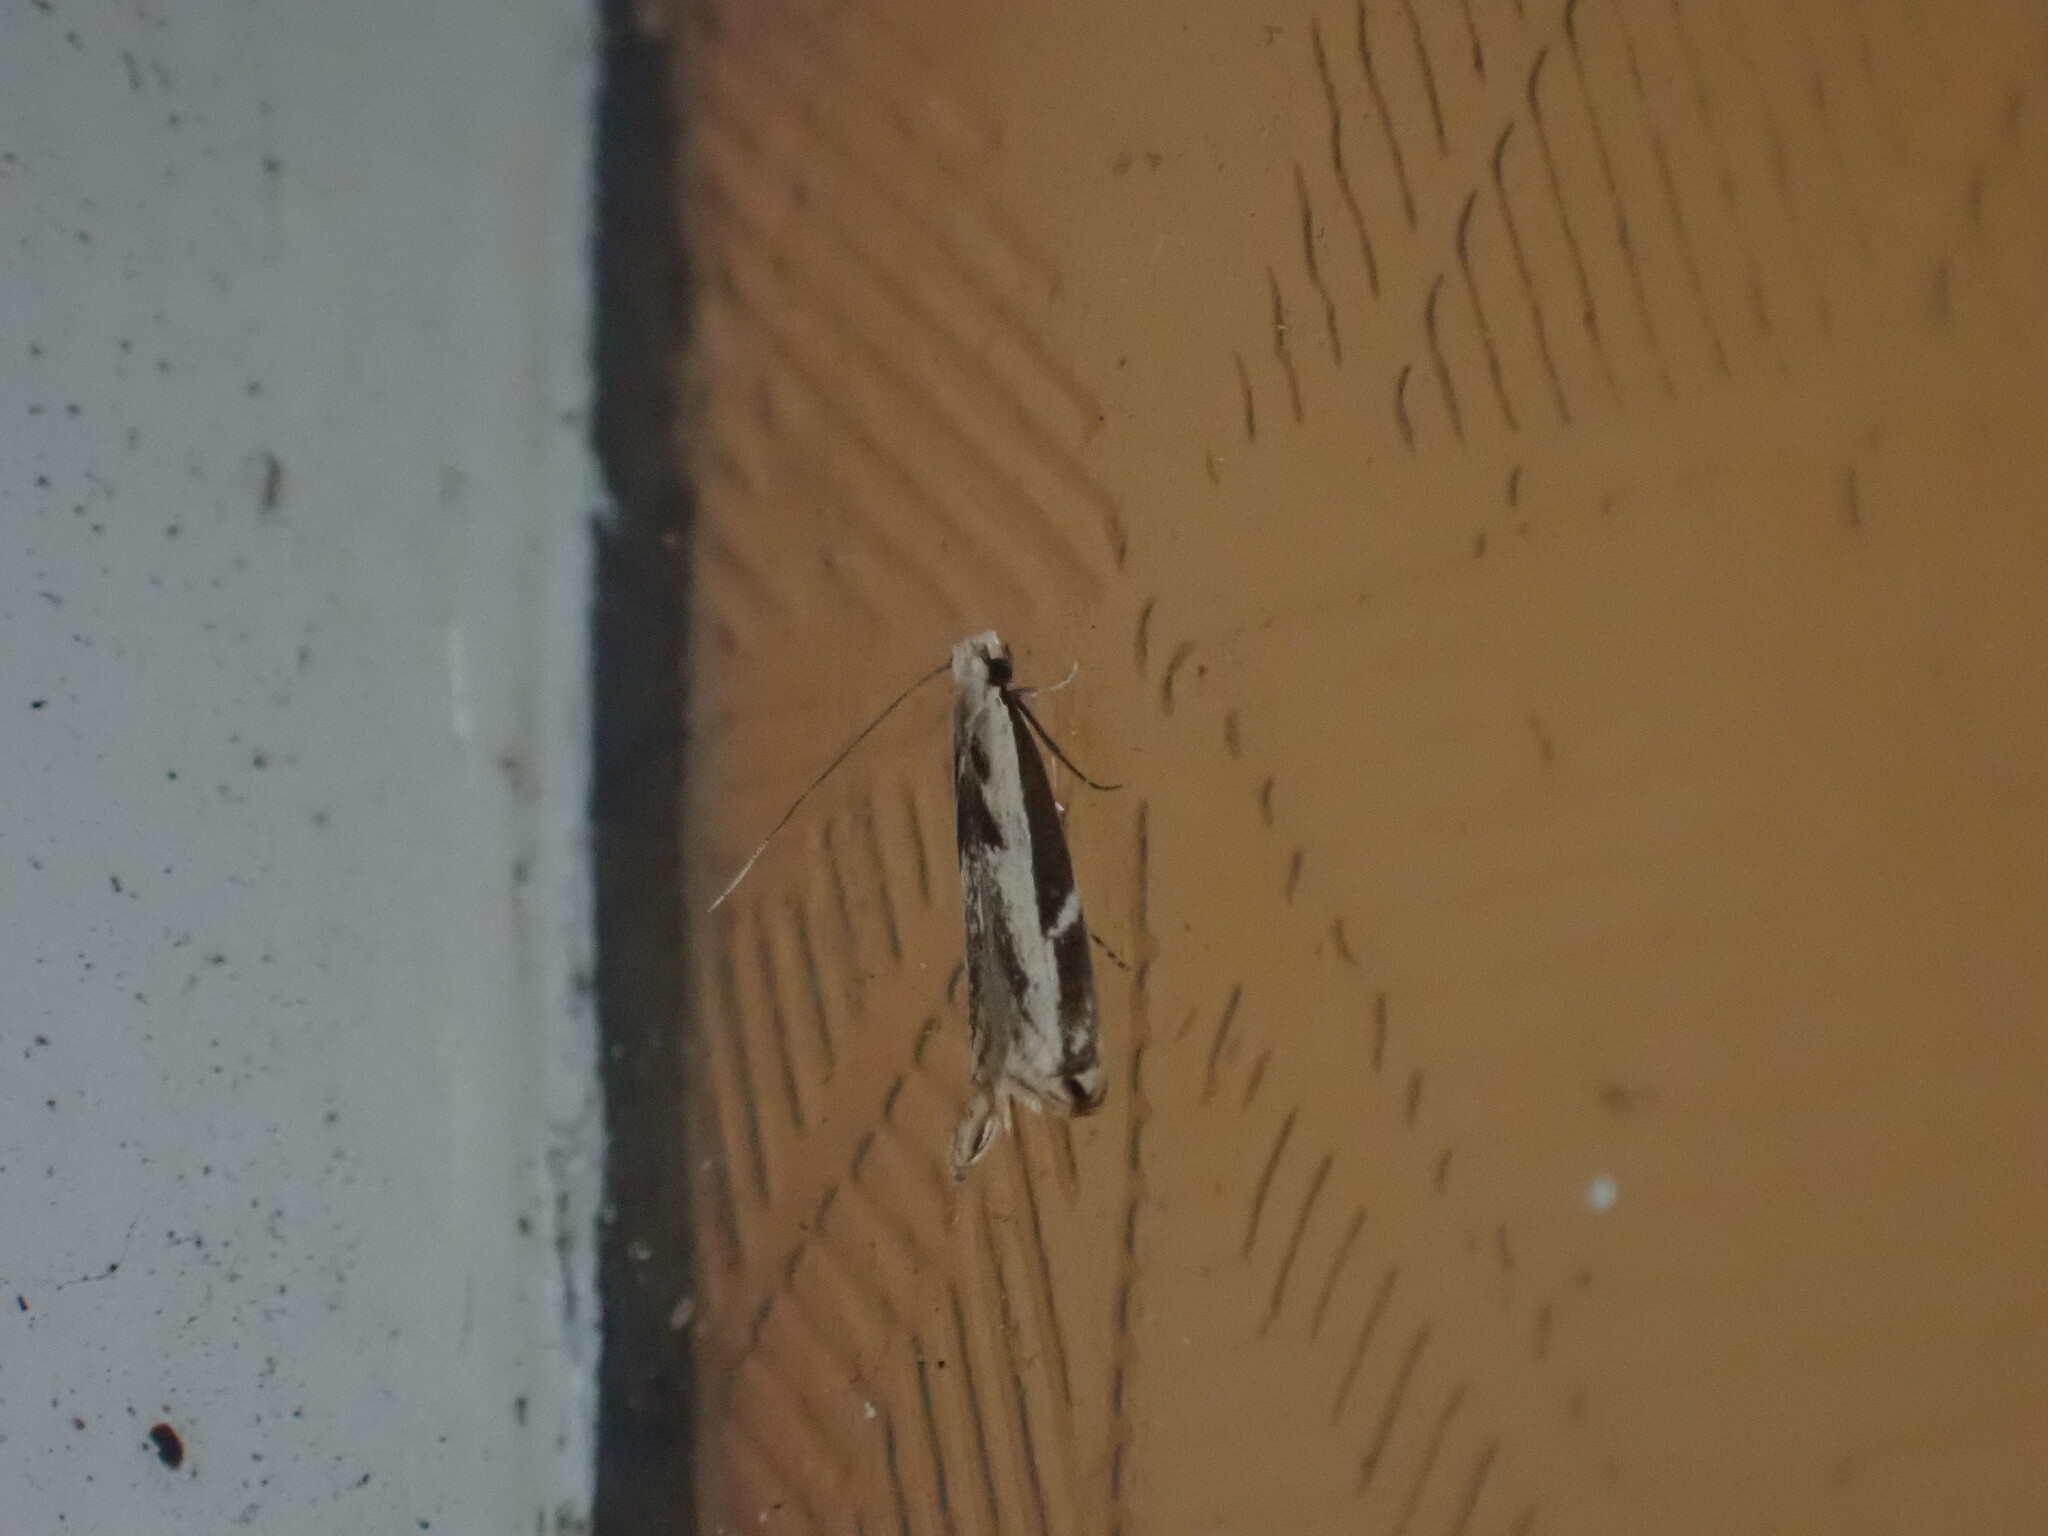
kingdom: Animalia
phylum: Arthropoda
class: Insecta
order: Lepidoptera
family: Tineidae
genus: Erechthias
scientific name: Erechthias terminella
